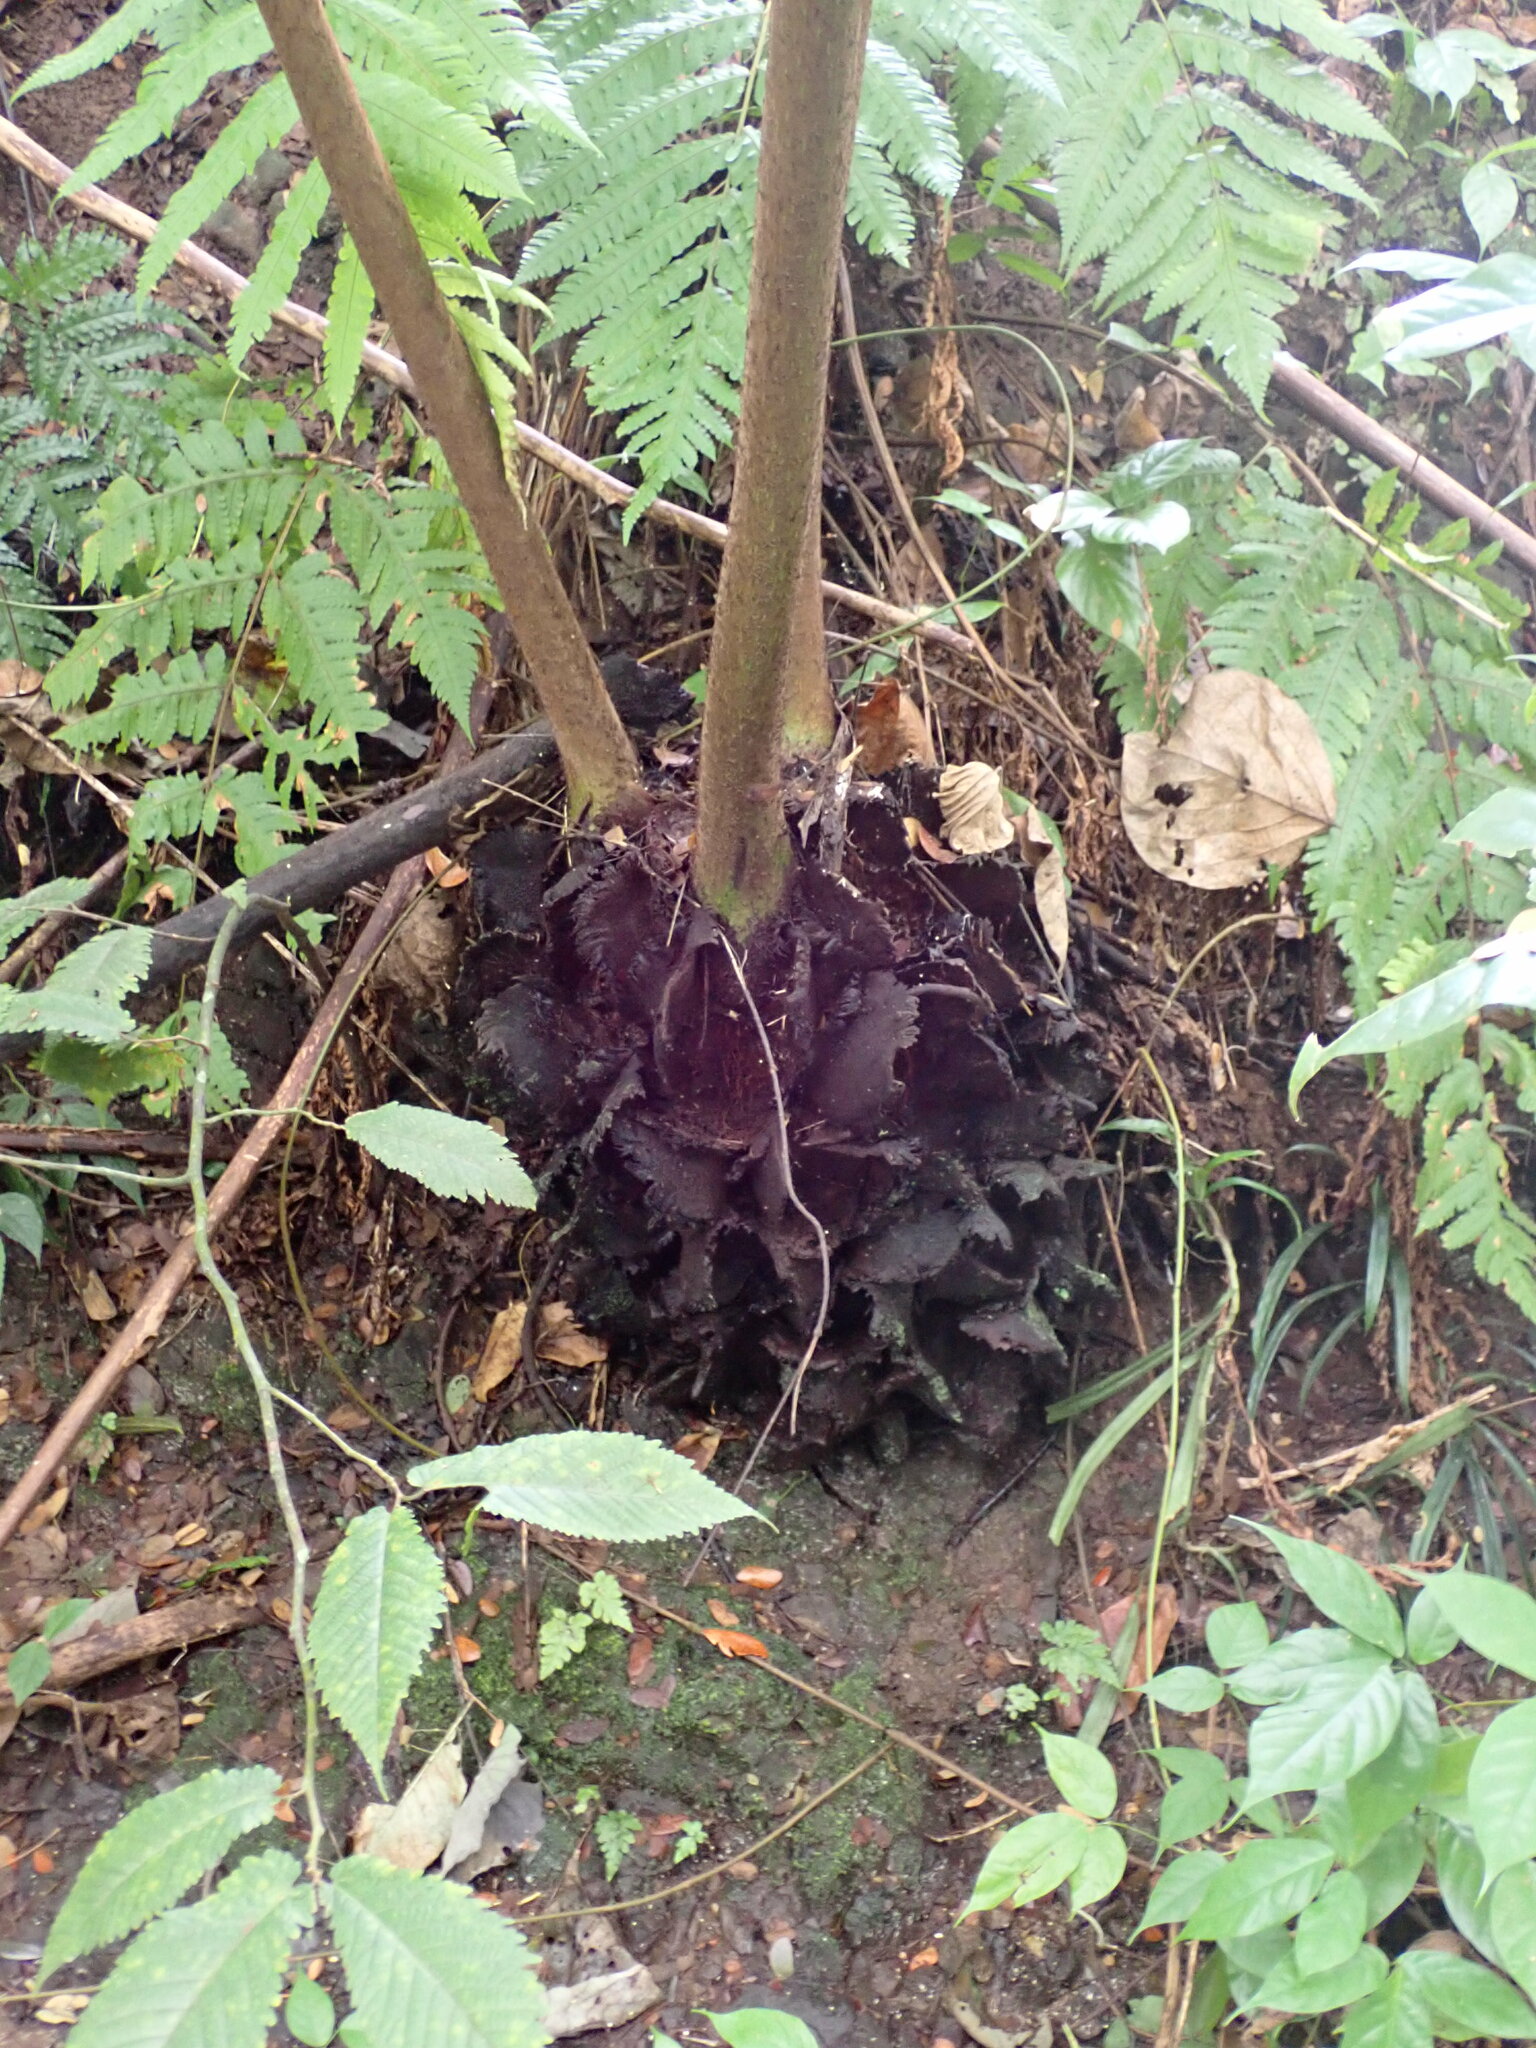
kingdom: Plantae
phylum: Tracheophyta
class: Polypodiopsida
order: Marattiales
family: Marattiaceae
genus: Angiopteris
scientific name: Angiopteris evecta
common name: Mule's-foot fern
